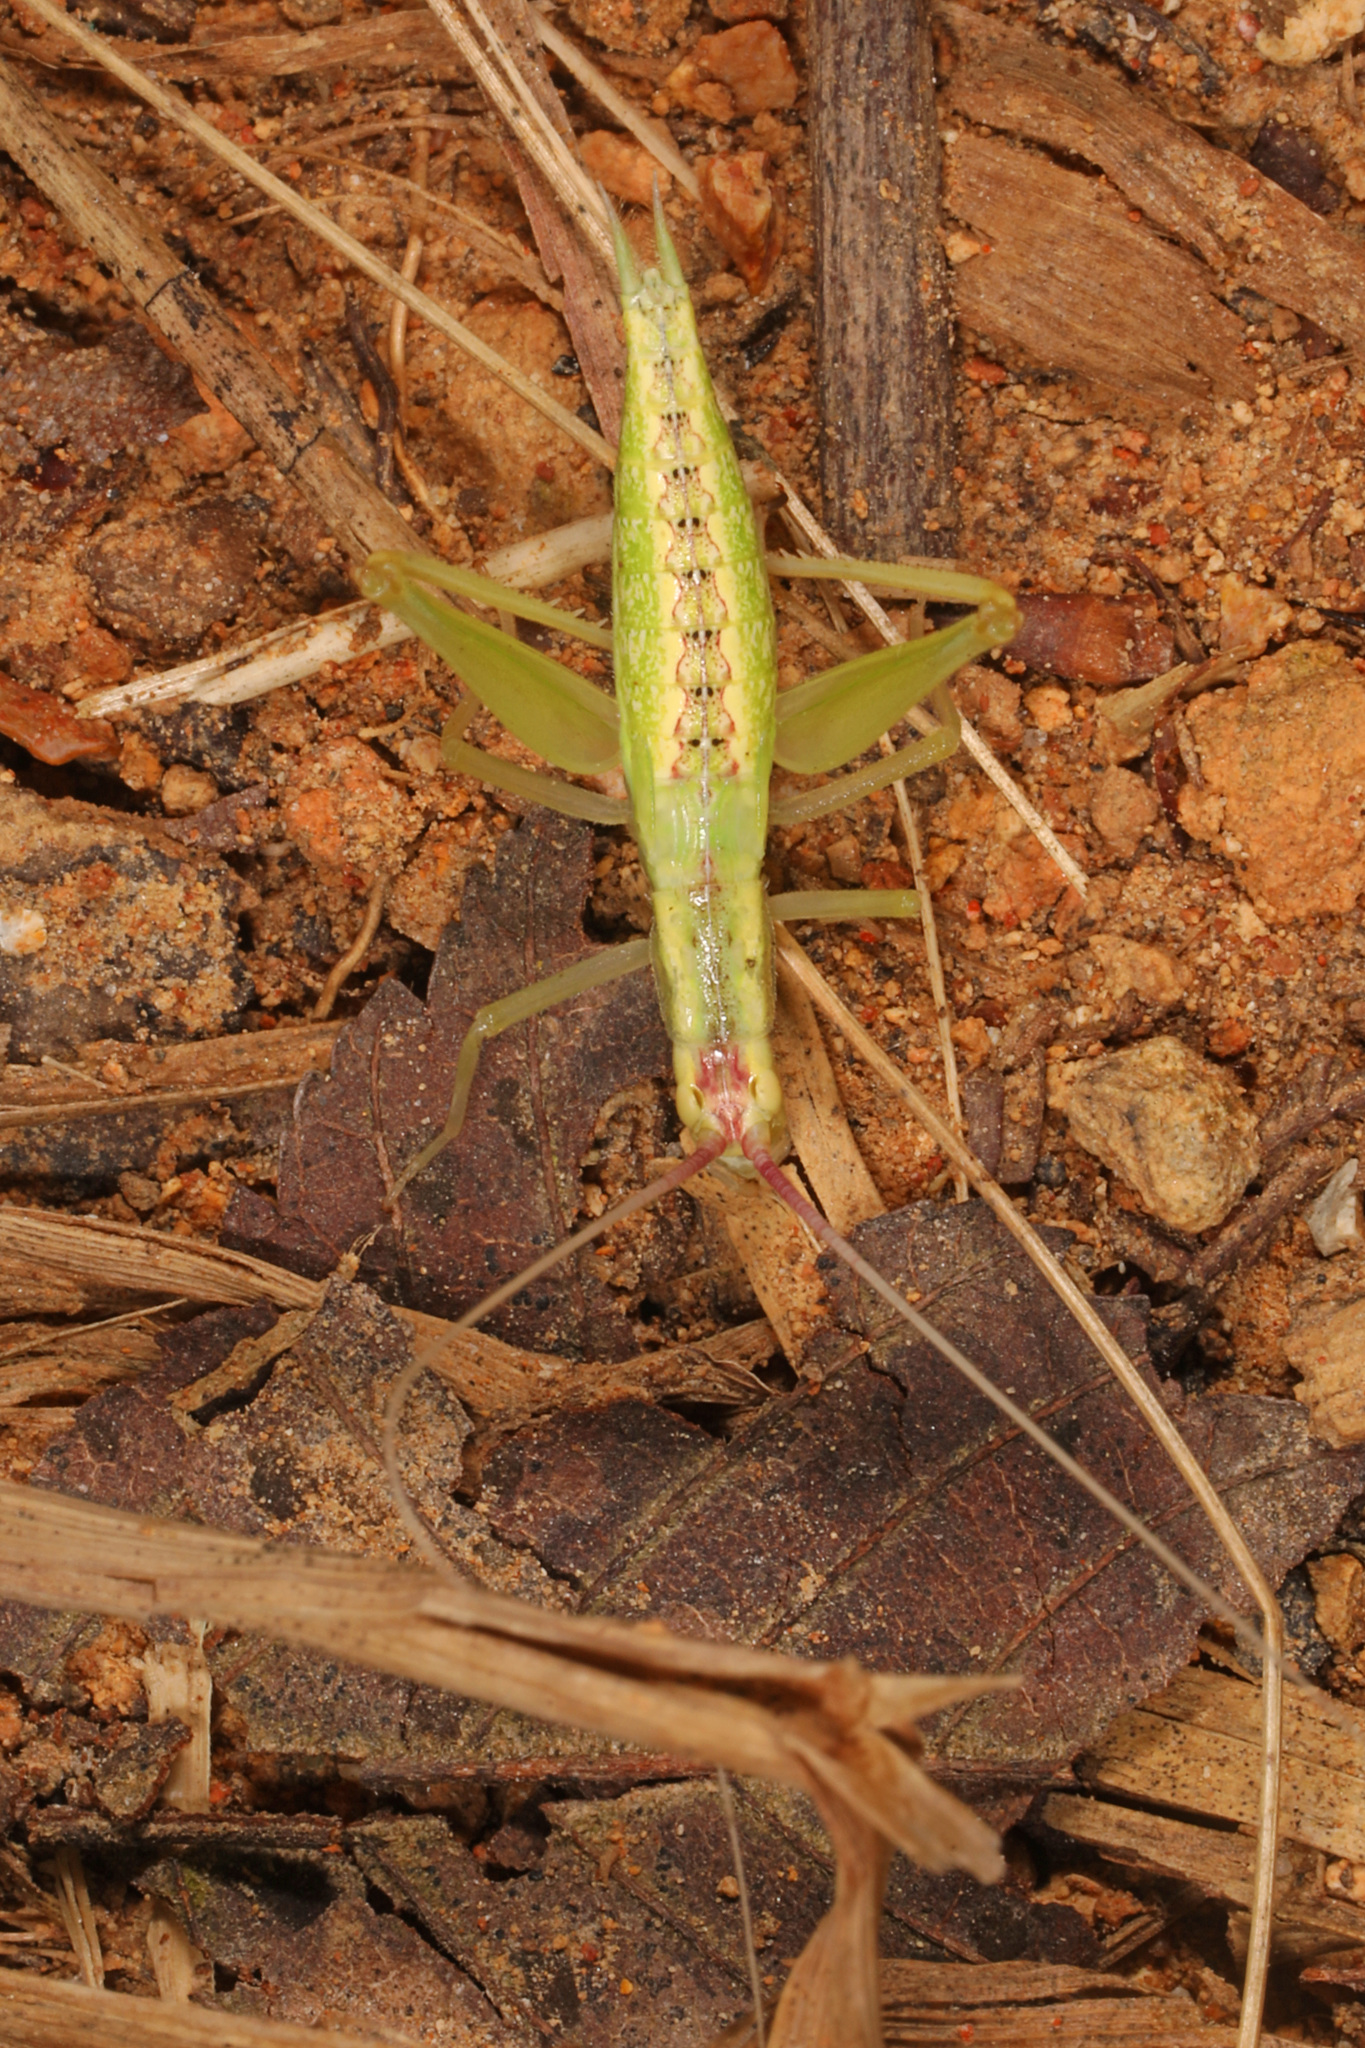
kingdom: Animalia
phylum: Arthropoda
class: Insecta
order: Orthoptera
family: Gryllidae
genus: Oecanthus
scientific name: Oecanthus latipennis
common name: Broad-winged tree cricket
